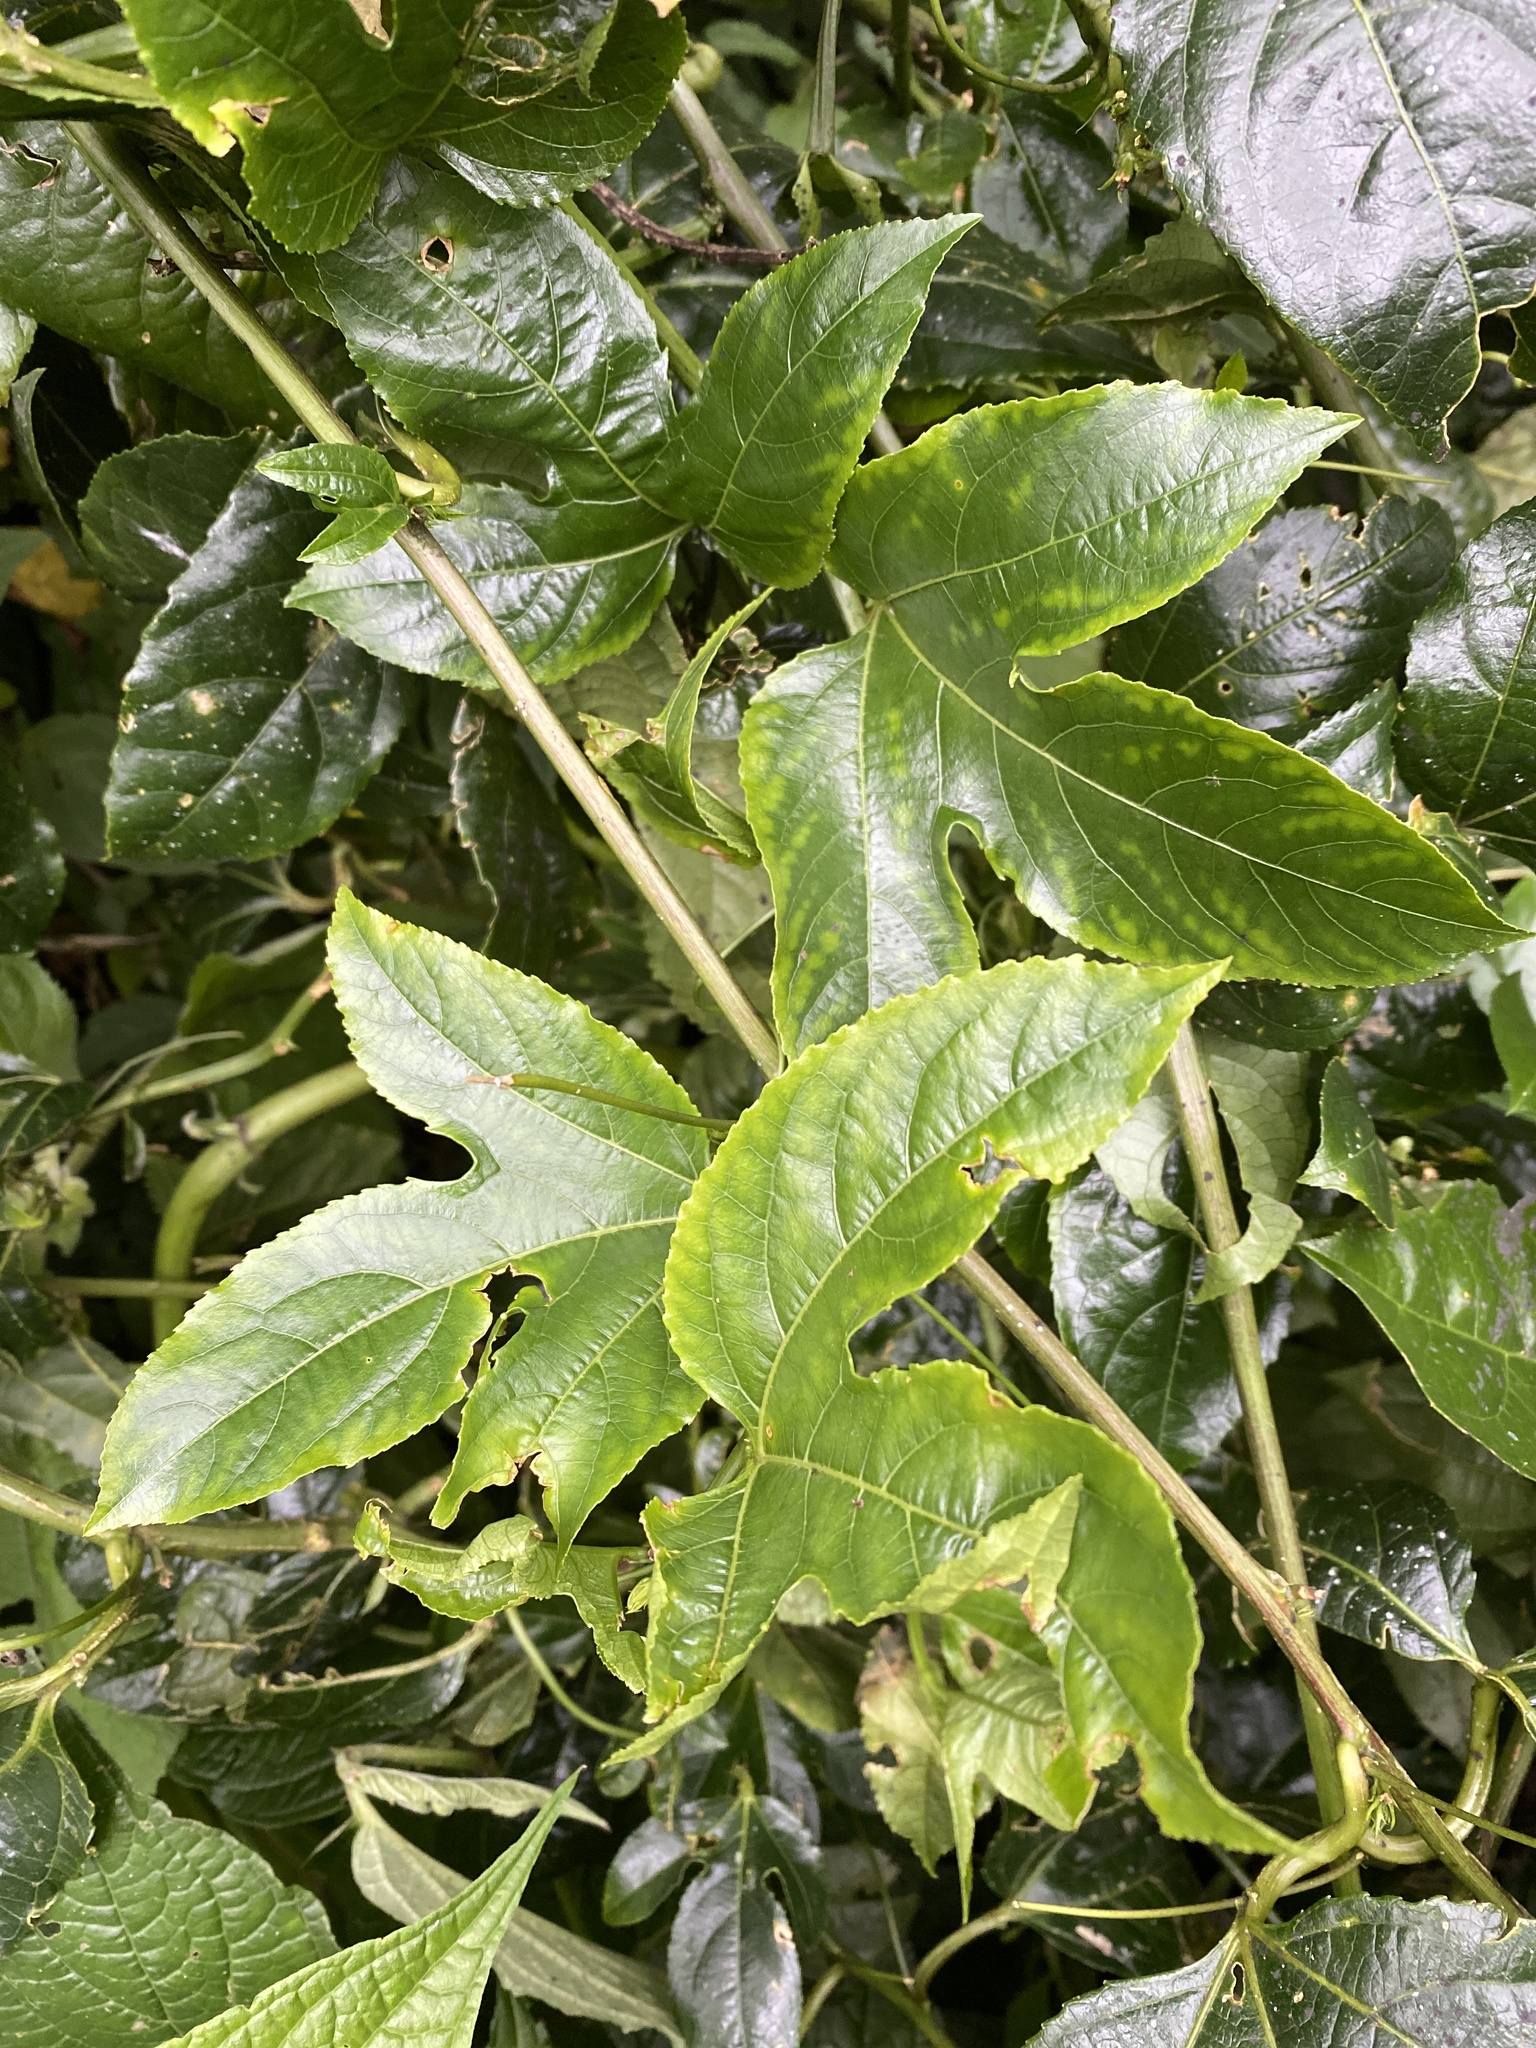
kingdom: Plantae
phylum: Tracheophyta
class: Magnoliopsida
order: Malpighiales
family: Passifloraceae
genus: Passiflora
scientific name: Passiflora edulis
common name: Purple granadilla
